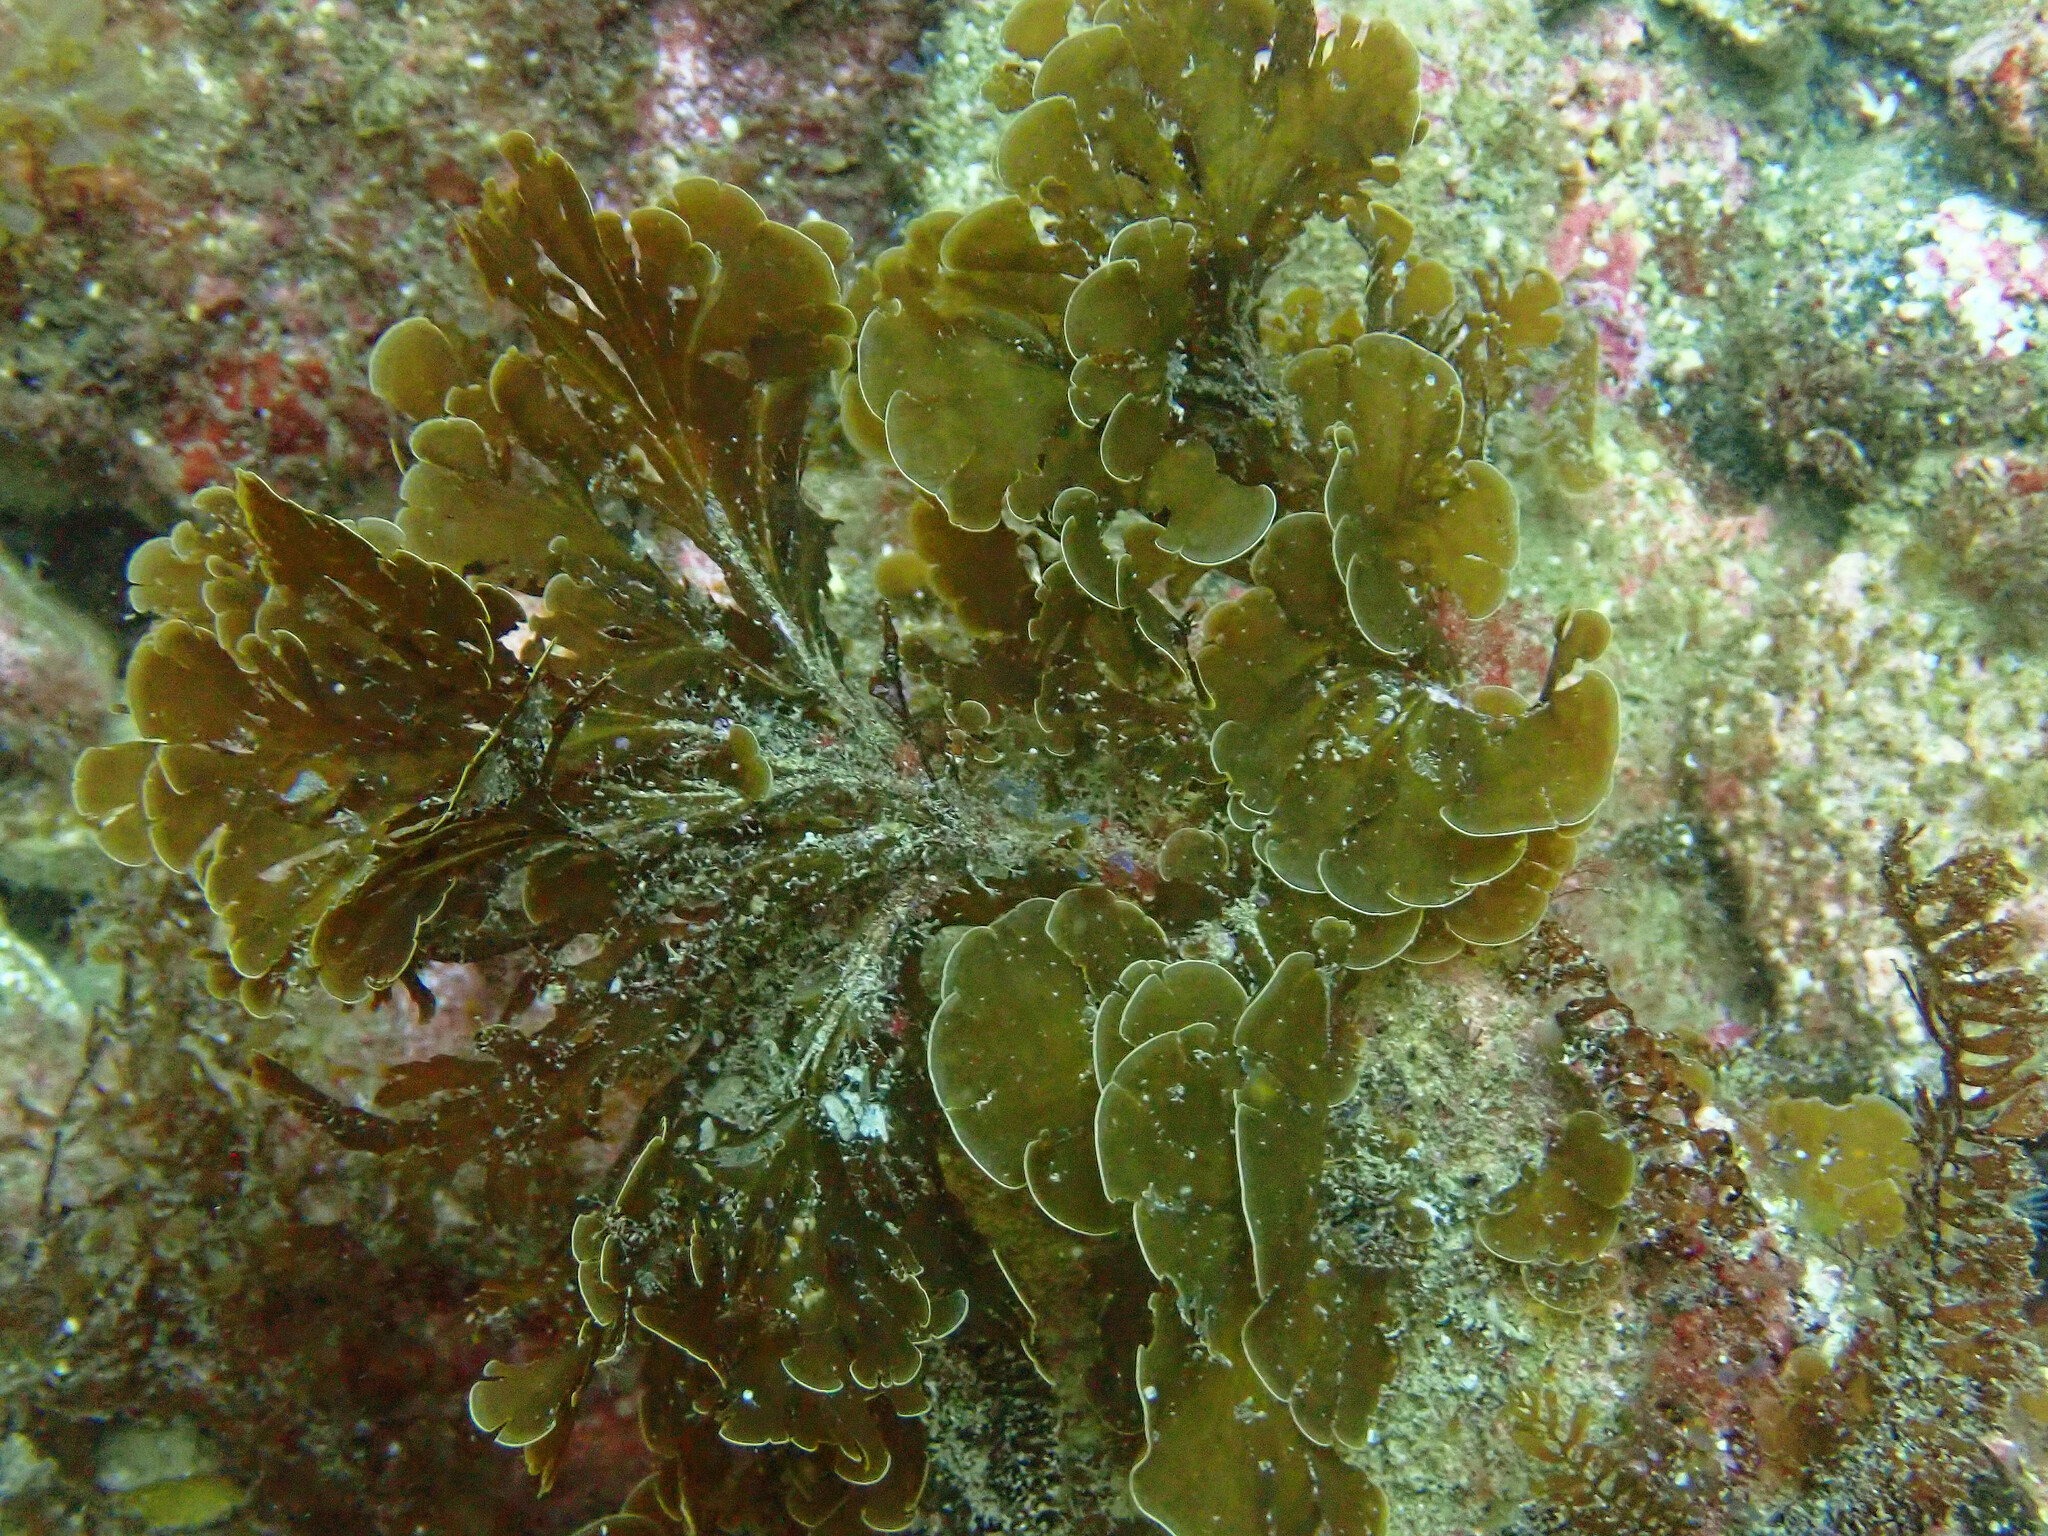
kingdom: Chromista
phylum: Ochrophyta
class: Phaeophyceae
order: Dictyotales
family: Dictyotaceae
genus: Zonaria
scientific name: Zonaria farlowii
